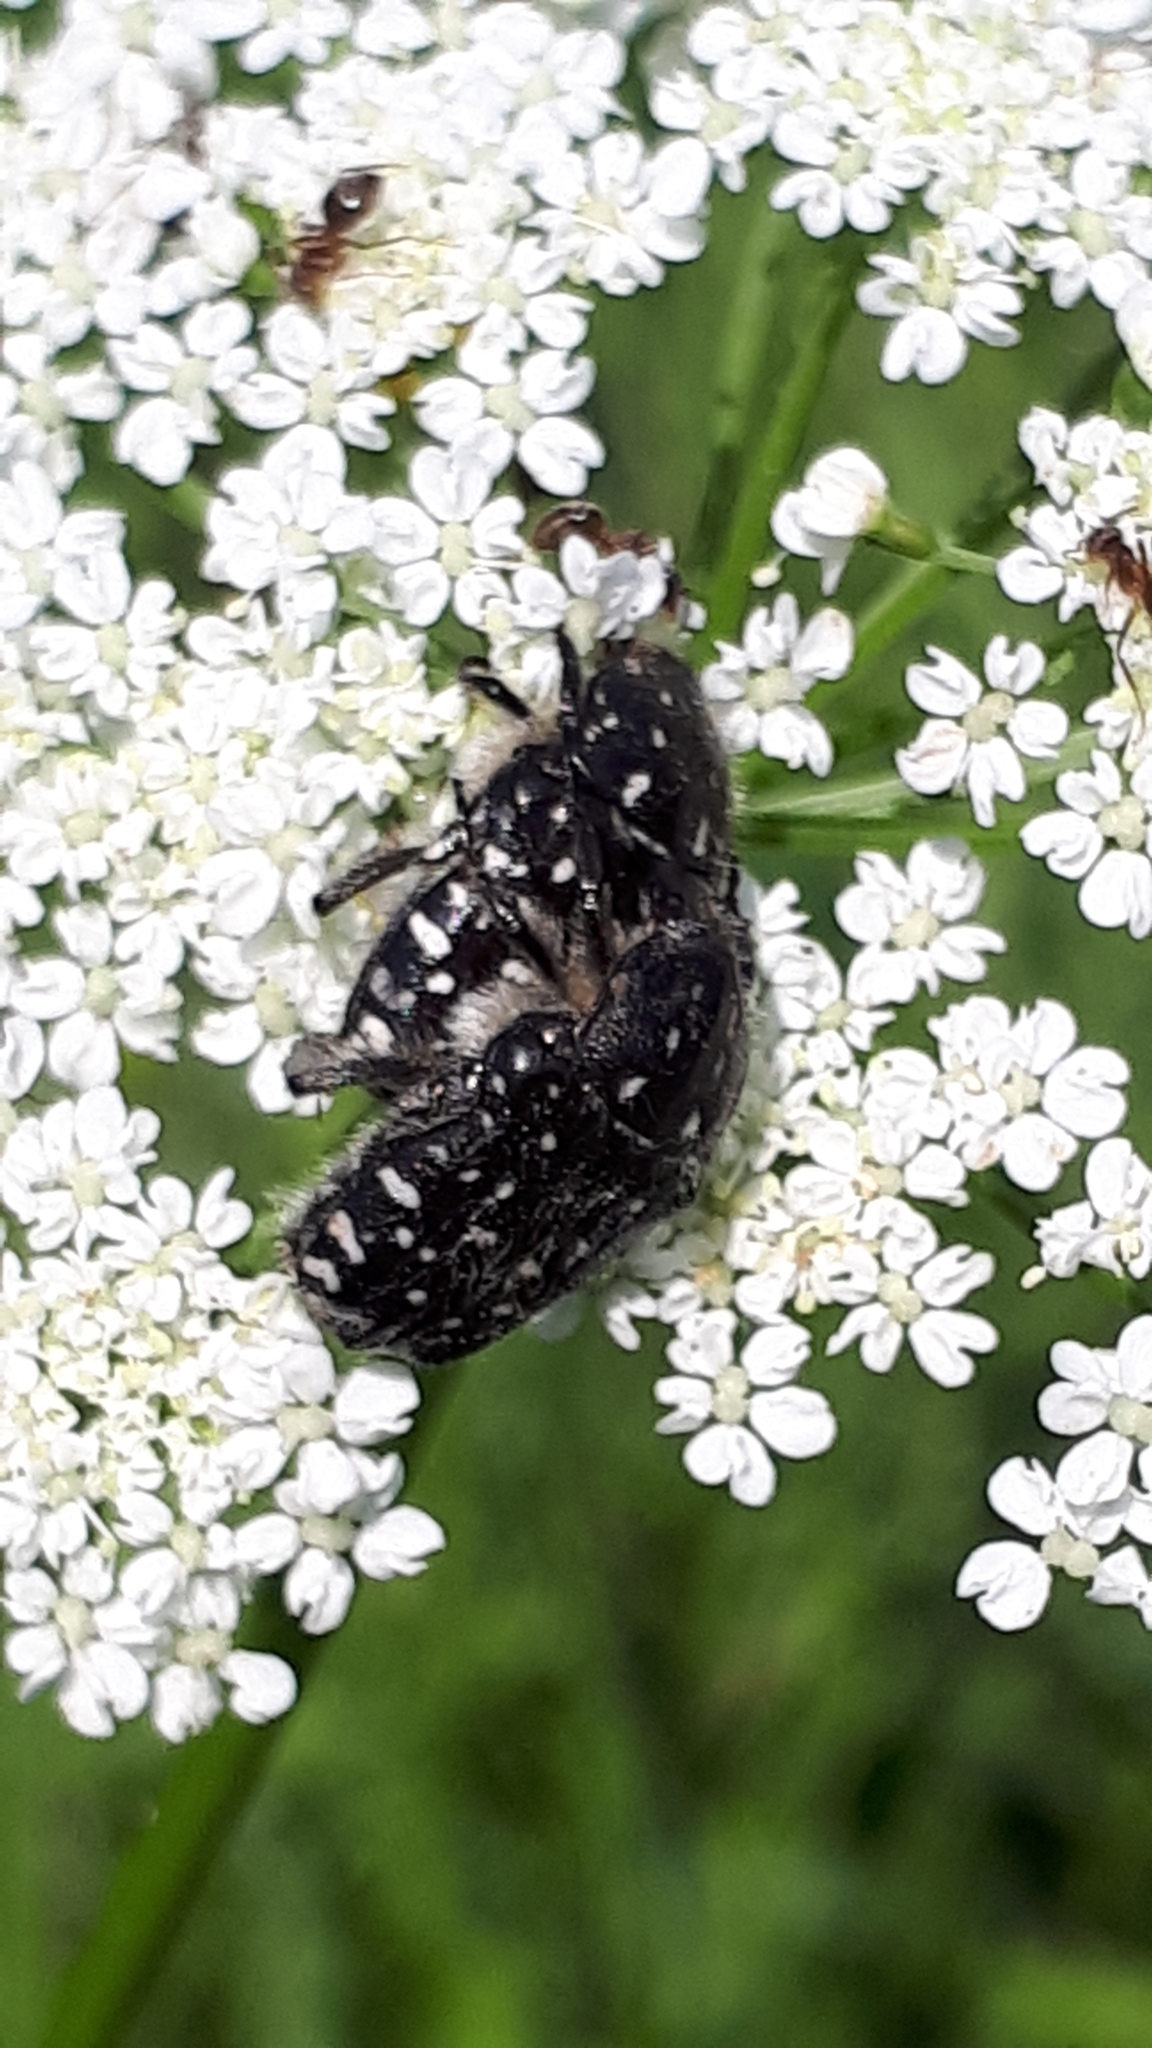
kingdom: Animalia
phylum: Arthropoda
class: Insecta
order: Coleoptera
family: Scarabaeidae
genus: Oxythyrea
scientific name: Oxythyrea funesta
